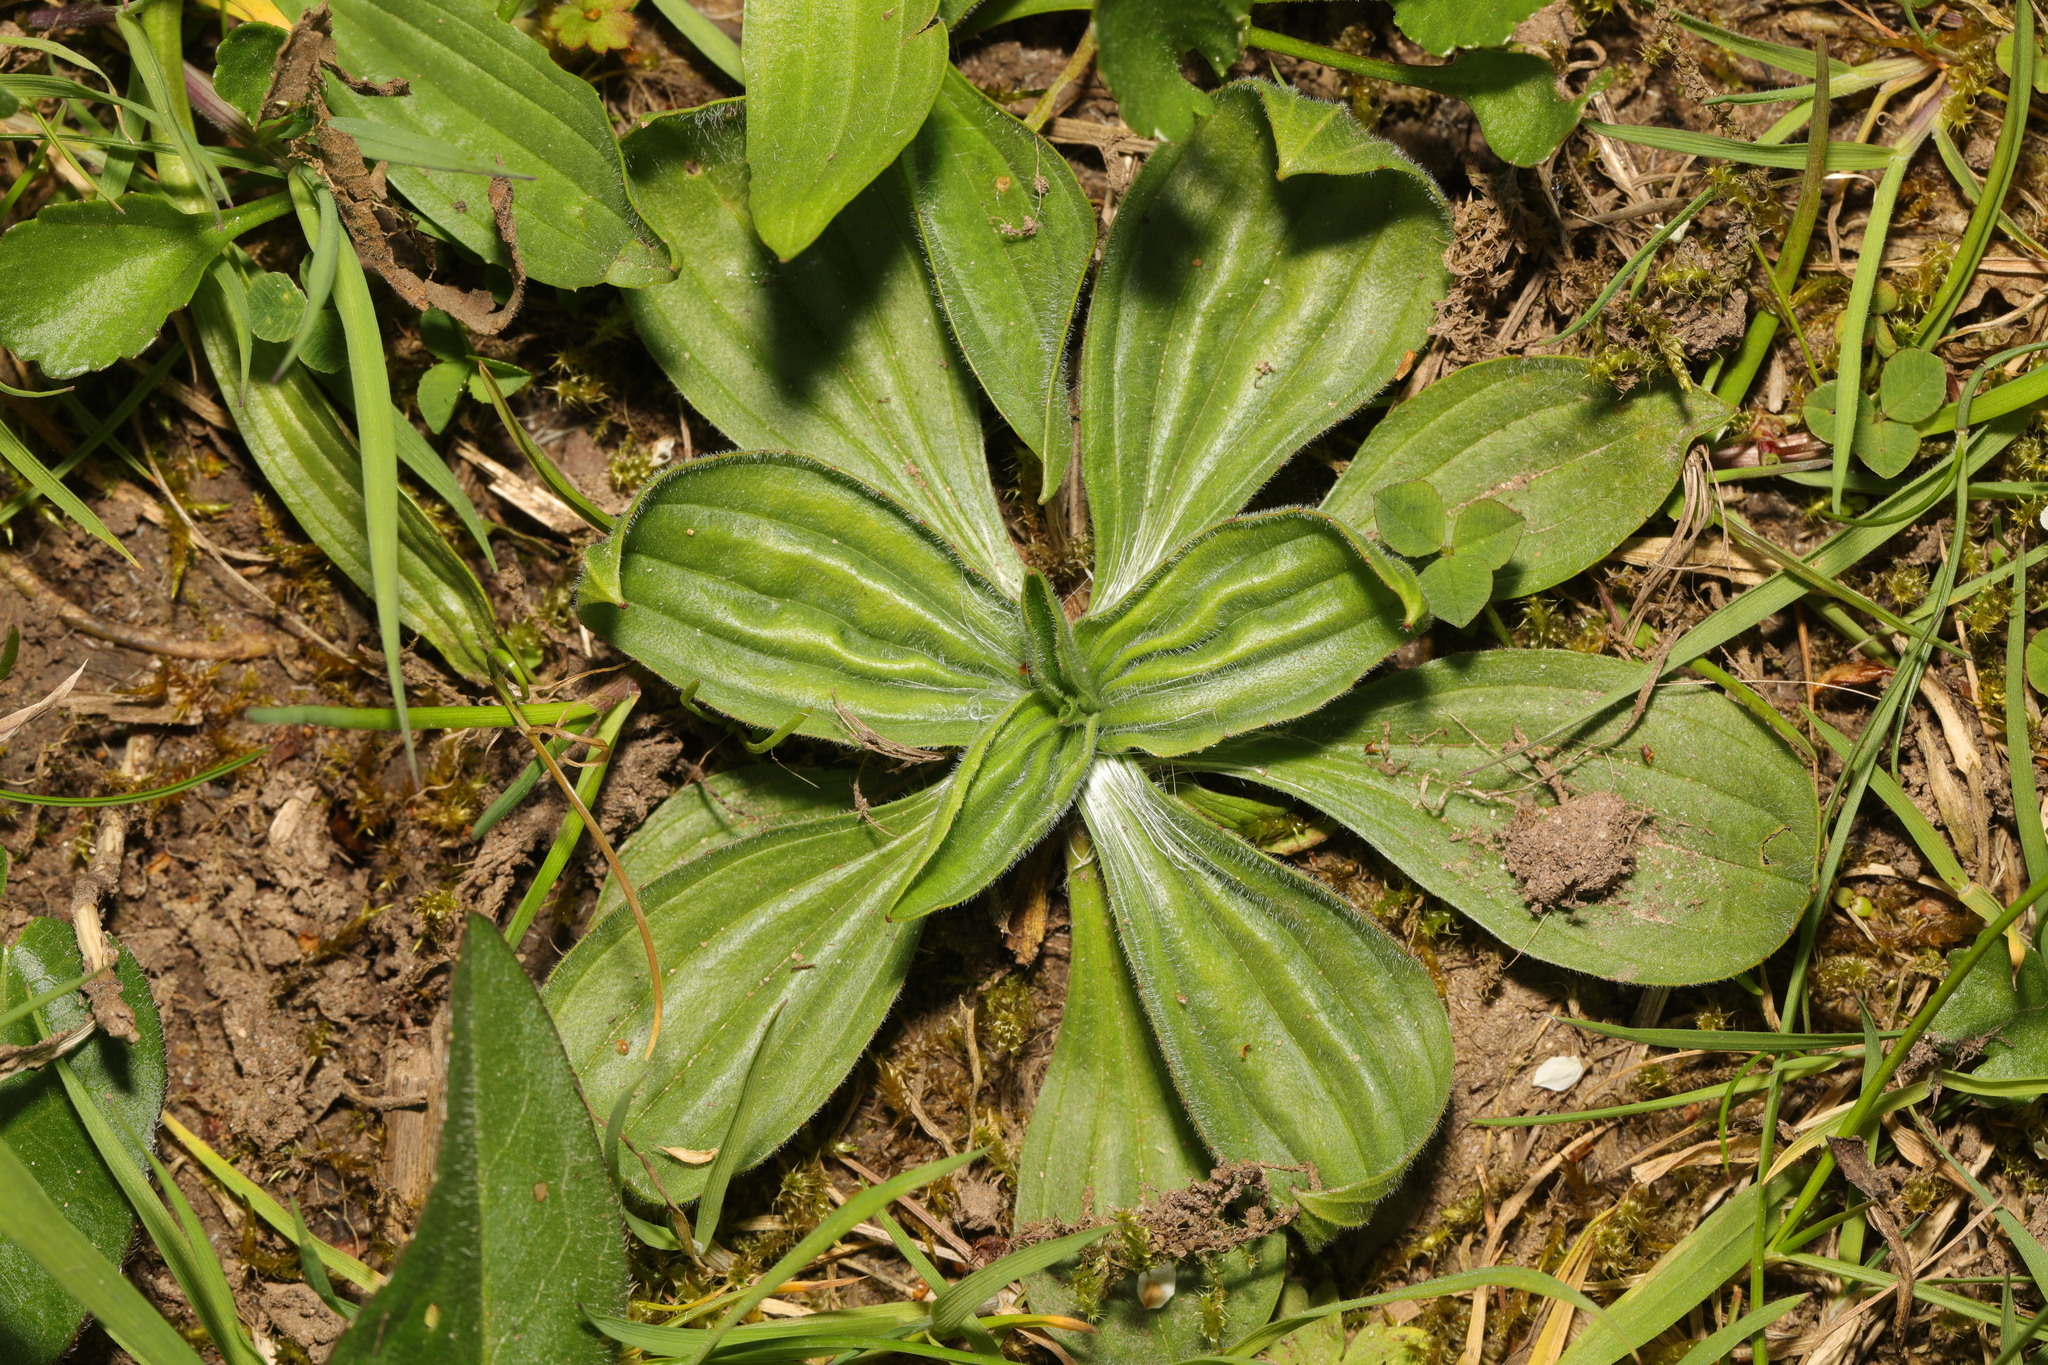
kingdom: Plantae
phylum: Tracheophyta
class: Magnoliopsida
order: Lamiales
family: Plantaginaceae
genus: Plantago
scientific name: Plantago media
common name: Hoary plantain
